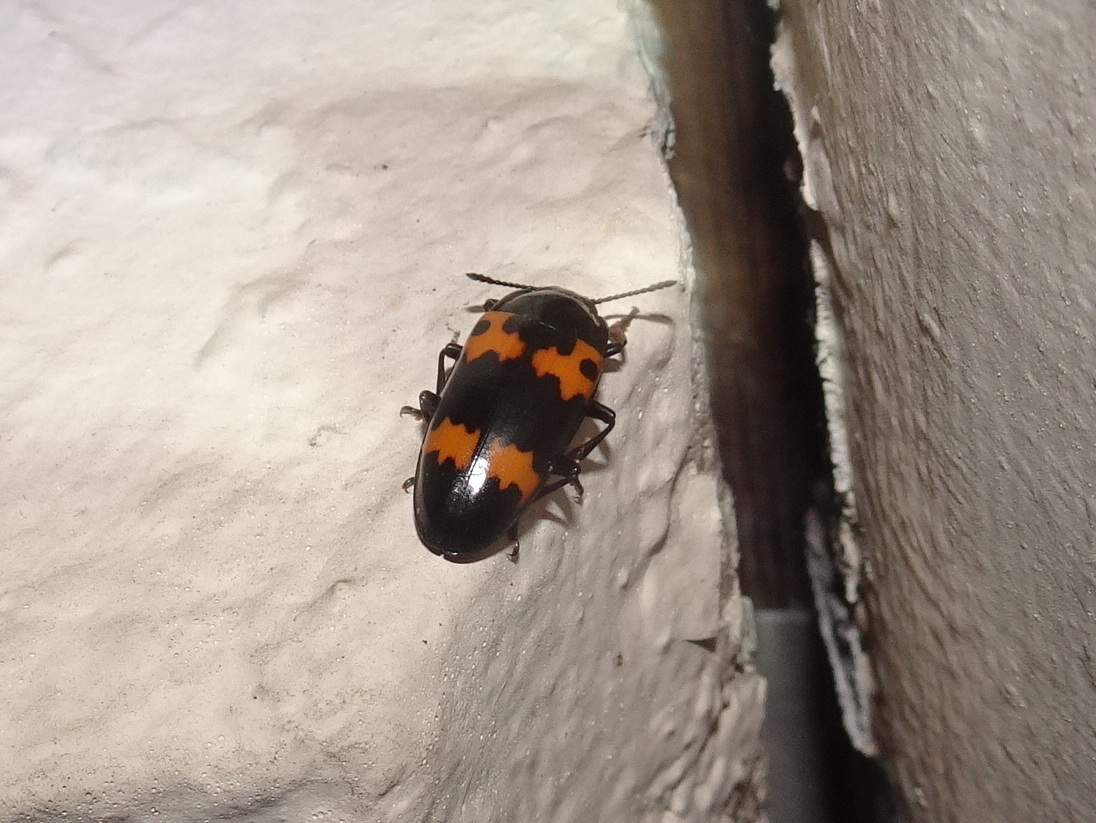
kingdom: Animalia
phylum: Arthropoda
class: Insecta
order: Coleoptera
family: Erotylidae
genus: Megalodacne
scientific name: Megalodacne fasciata
